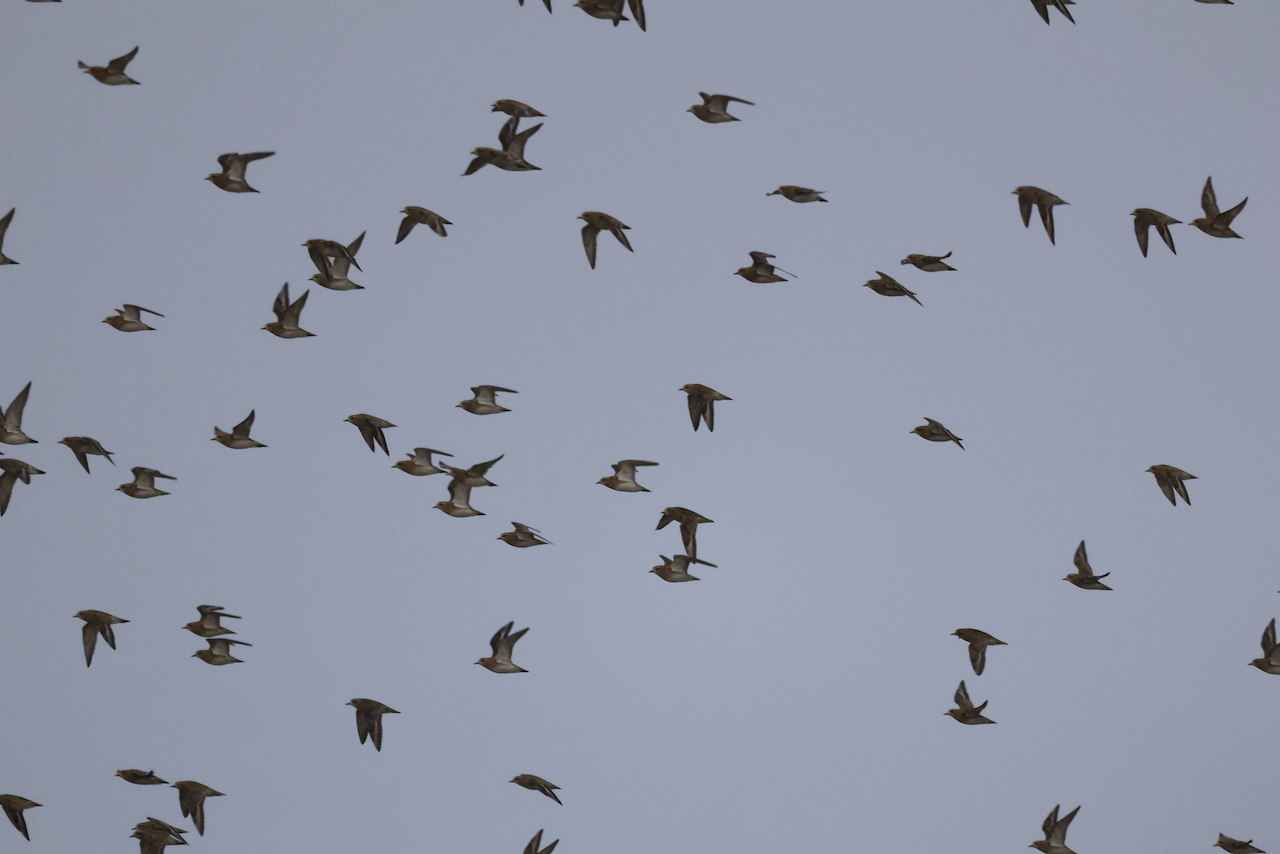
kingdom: Animalia
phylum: Chordata
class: Aves
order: Charadriiformes
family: Charadriidae
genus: Pluvialis
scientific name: Pluvialis apricaria
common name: European golden plover
